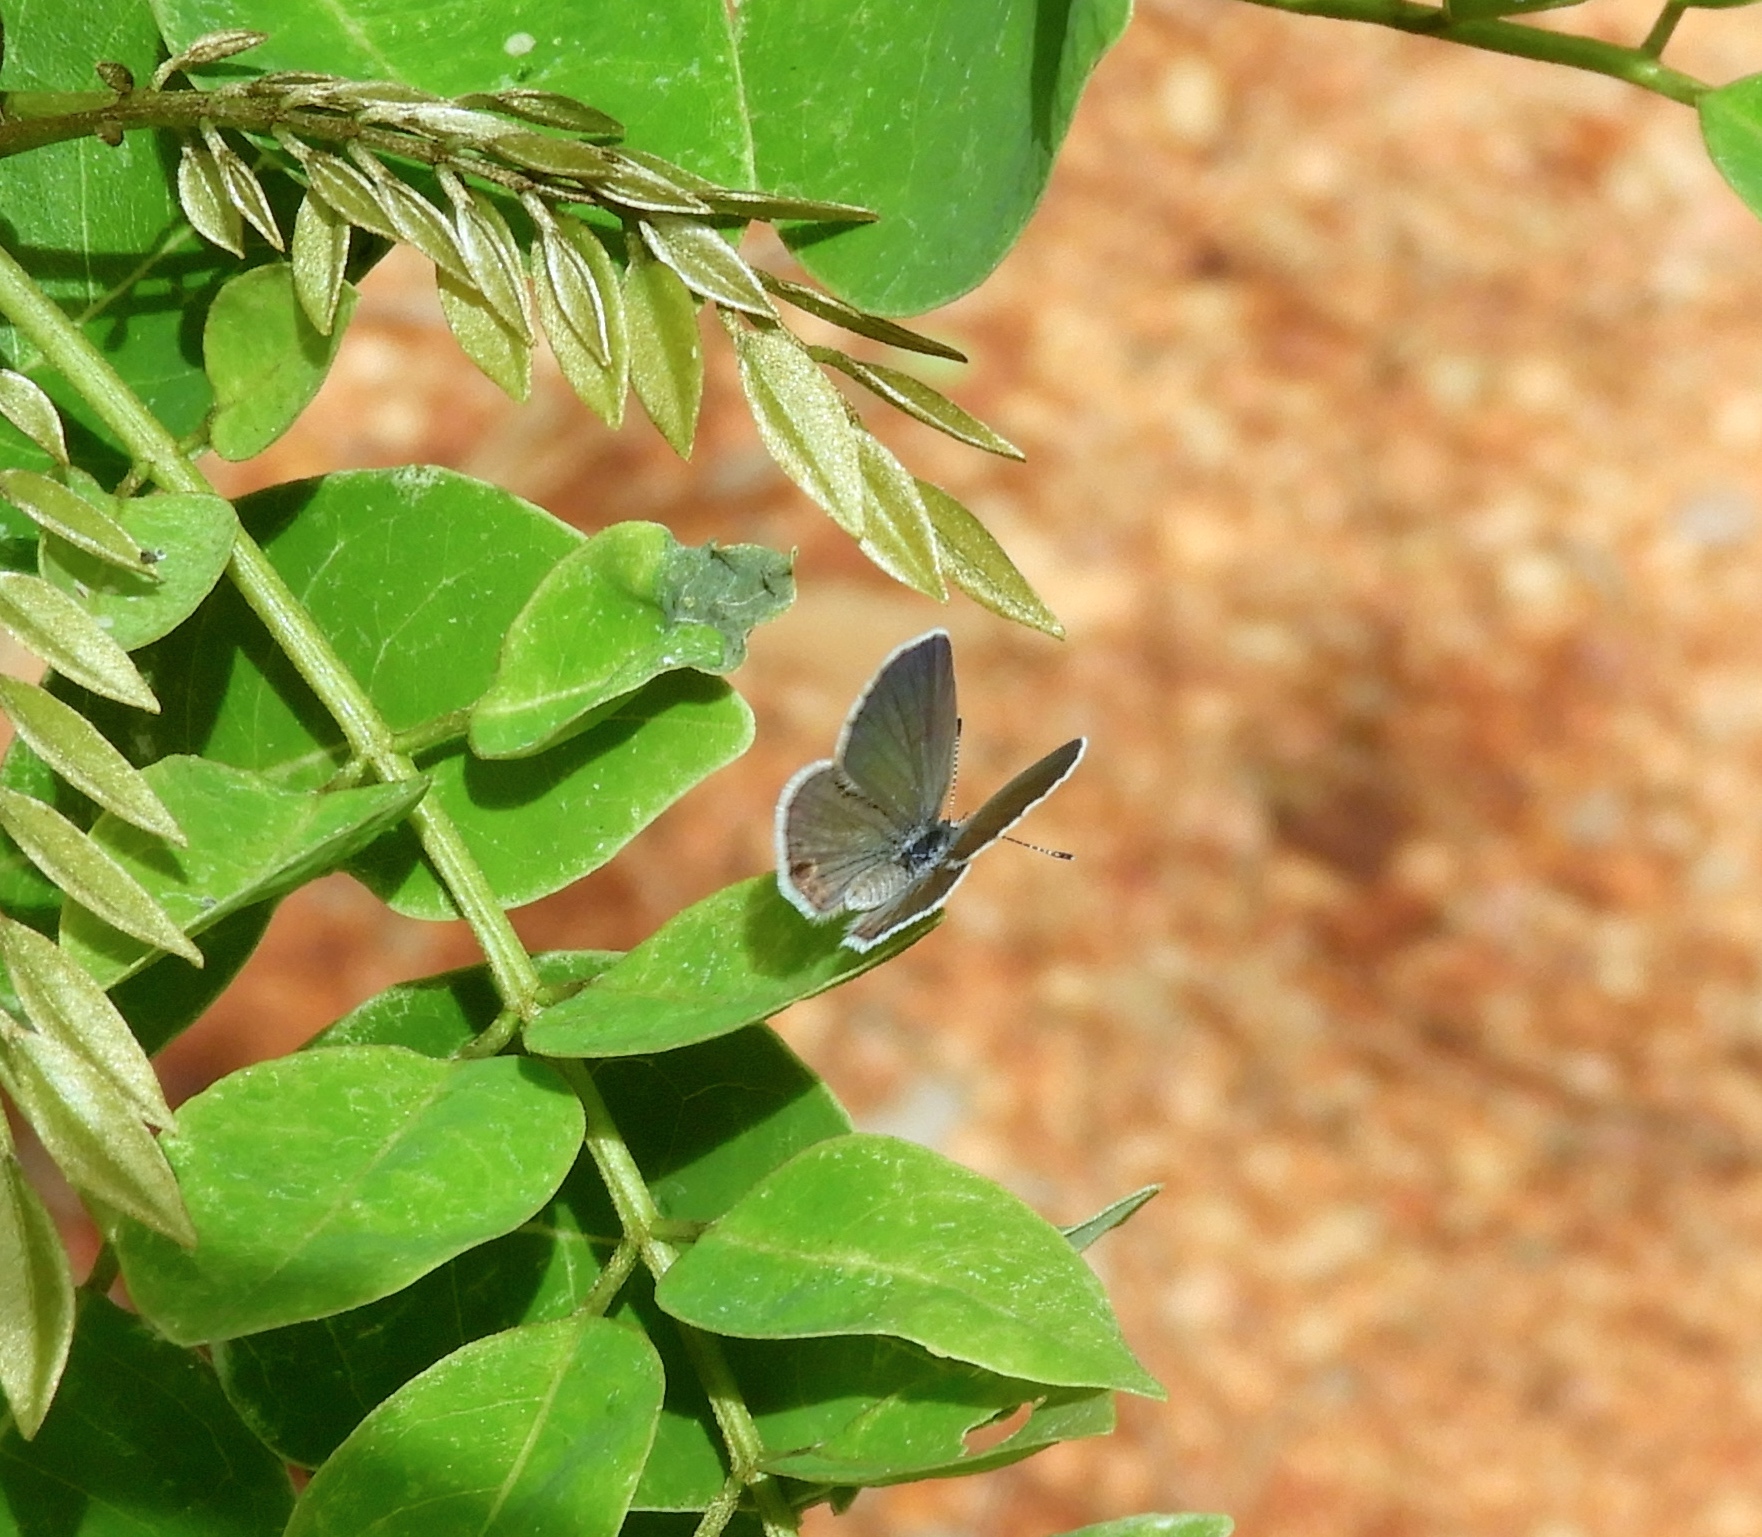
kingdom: Animalia
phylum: Arthropoda
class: Insecta
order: Lepidoptera
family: Lycaenidae
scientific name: Lycaenidae
